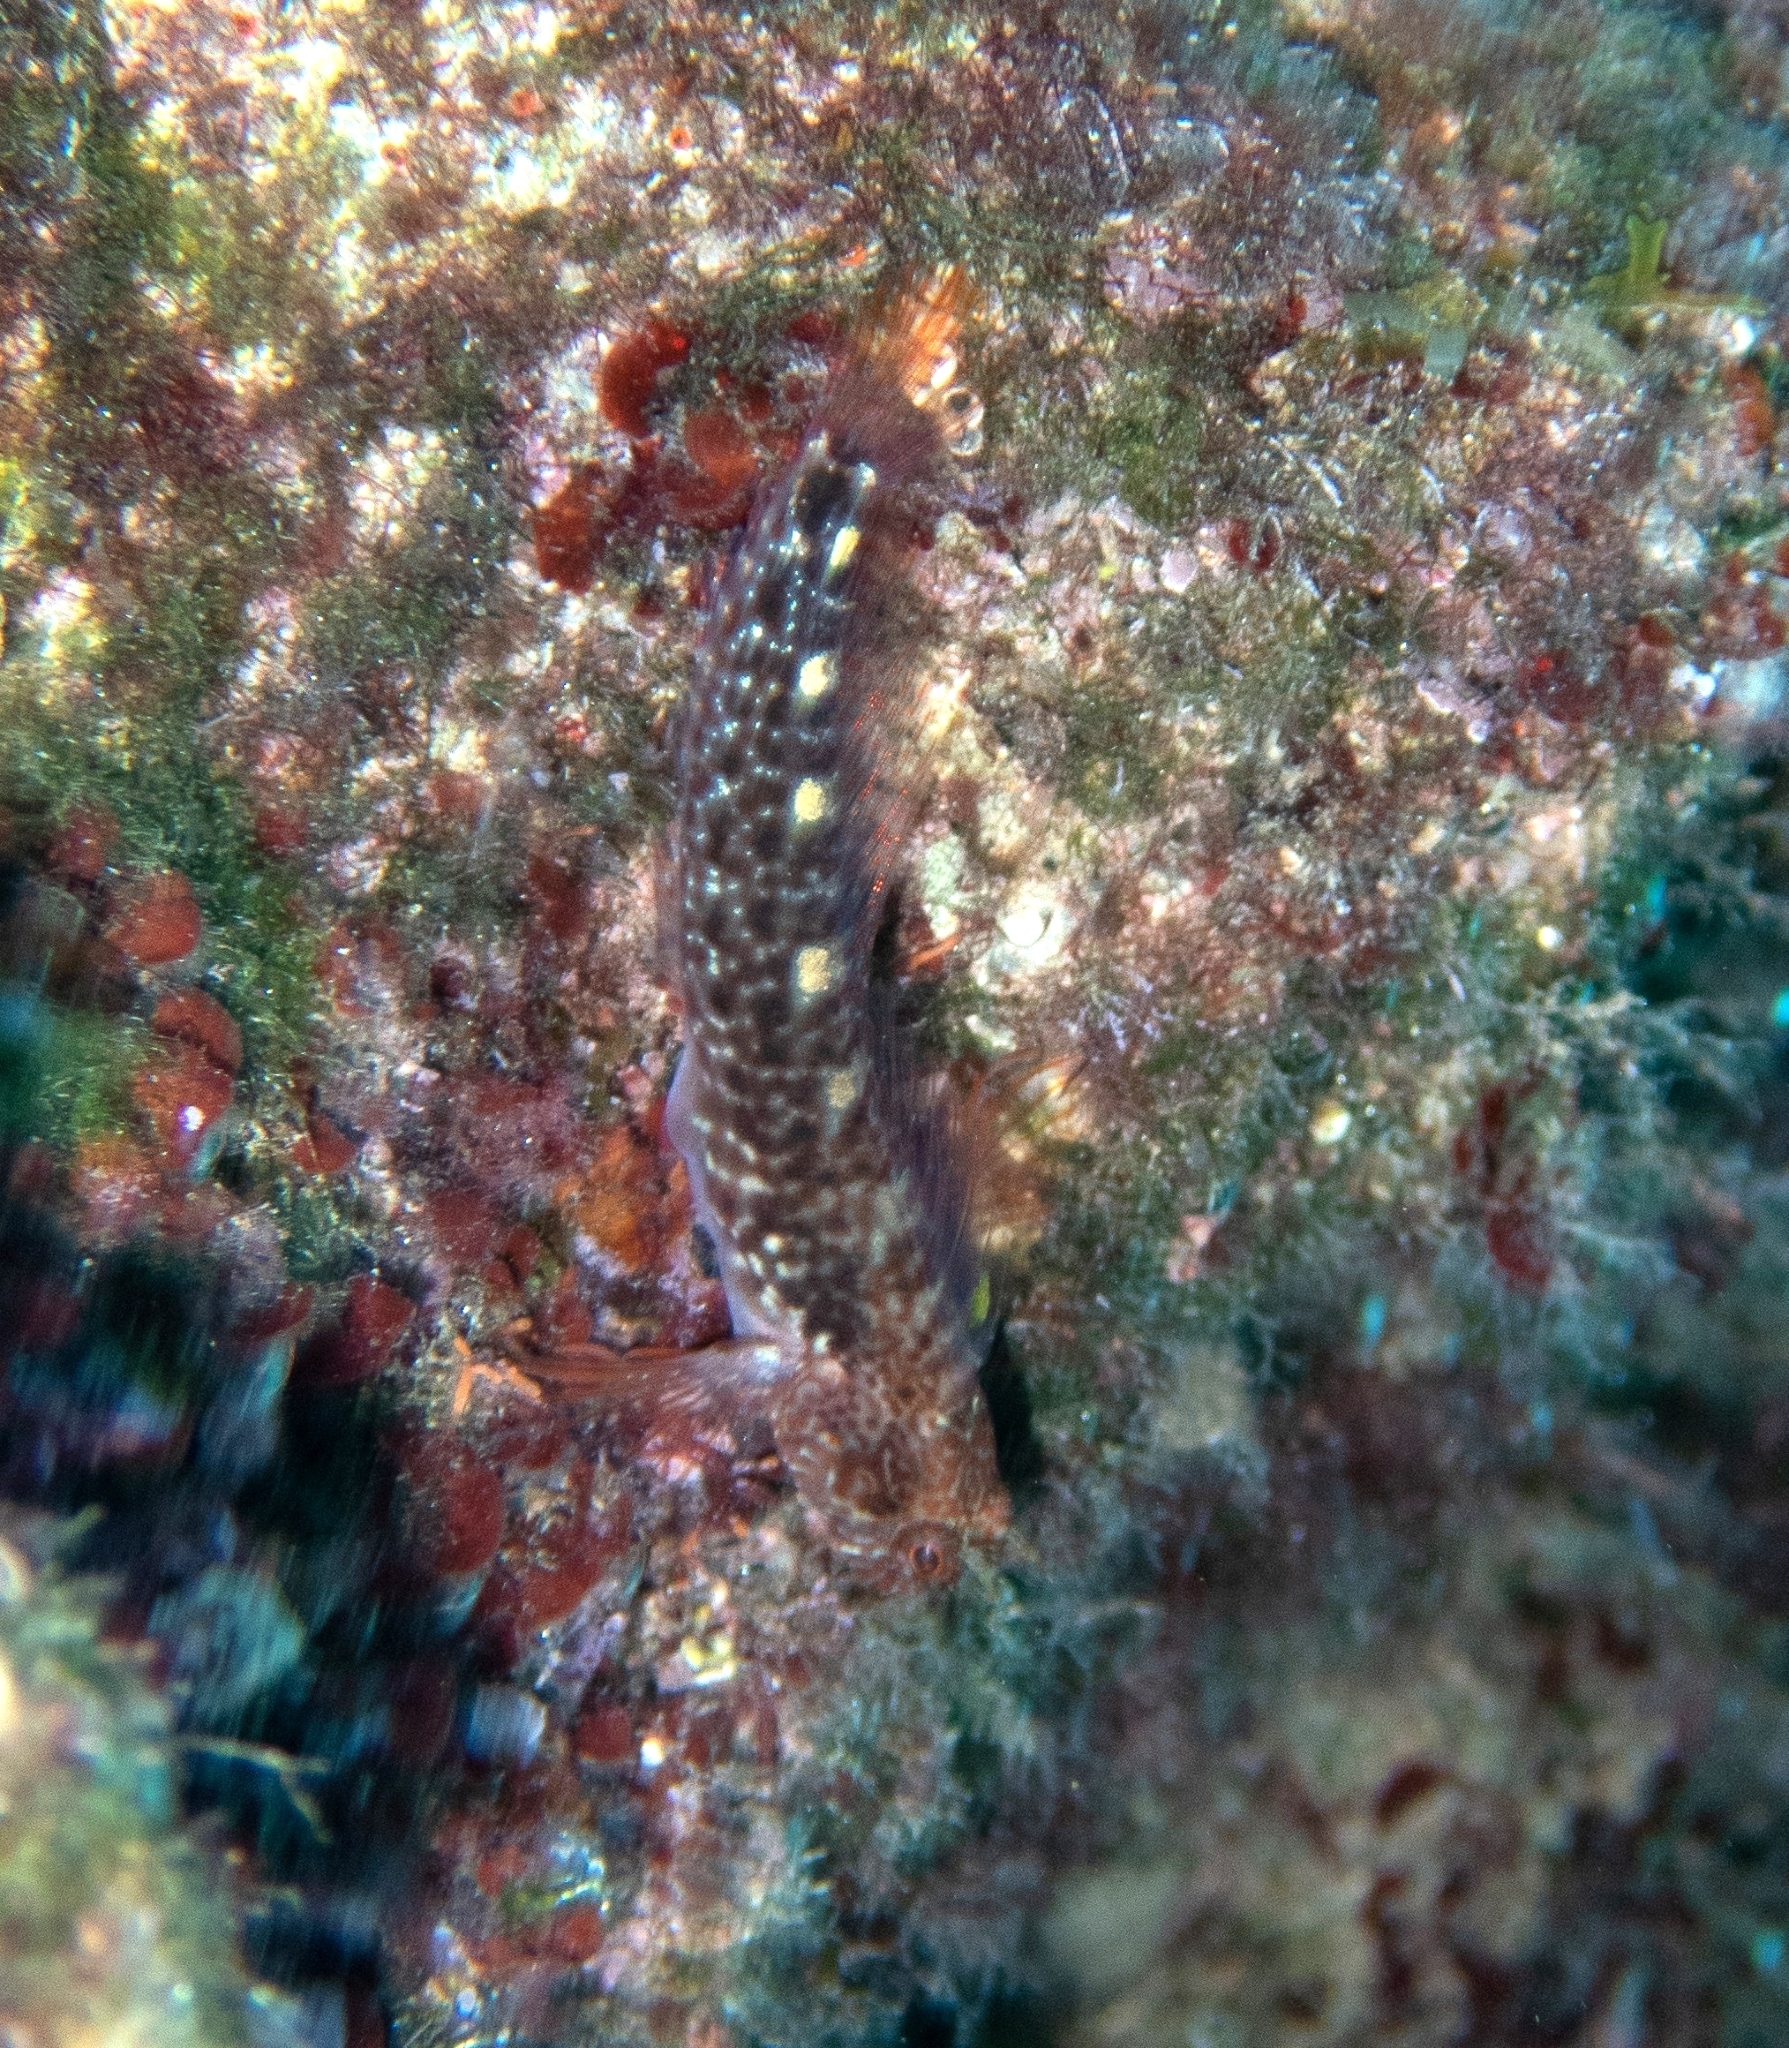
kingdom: Animalia
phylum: Chordata
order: Perciformes
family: Blenniidae
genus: Parablennius
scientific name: Parablennius zvonimiri
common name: Red blenny
